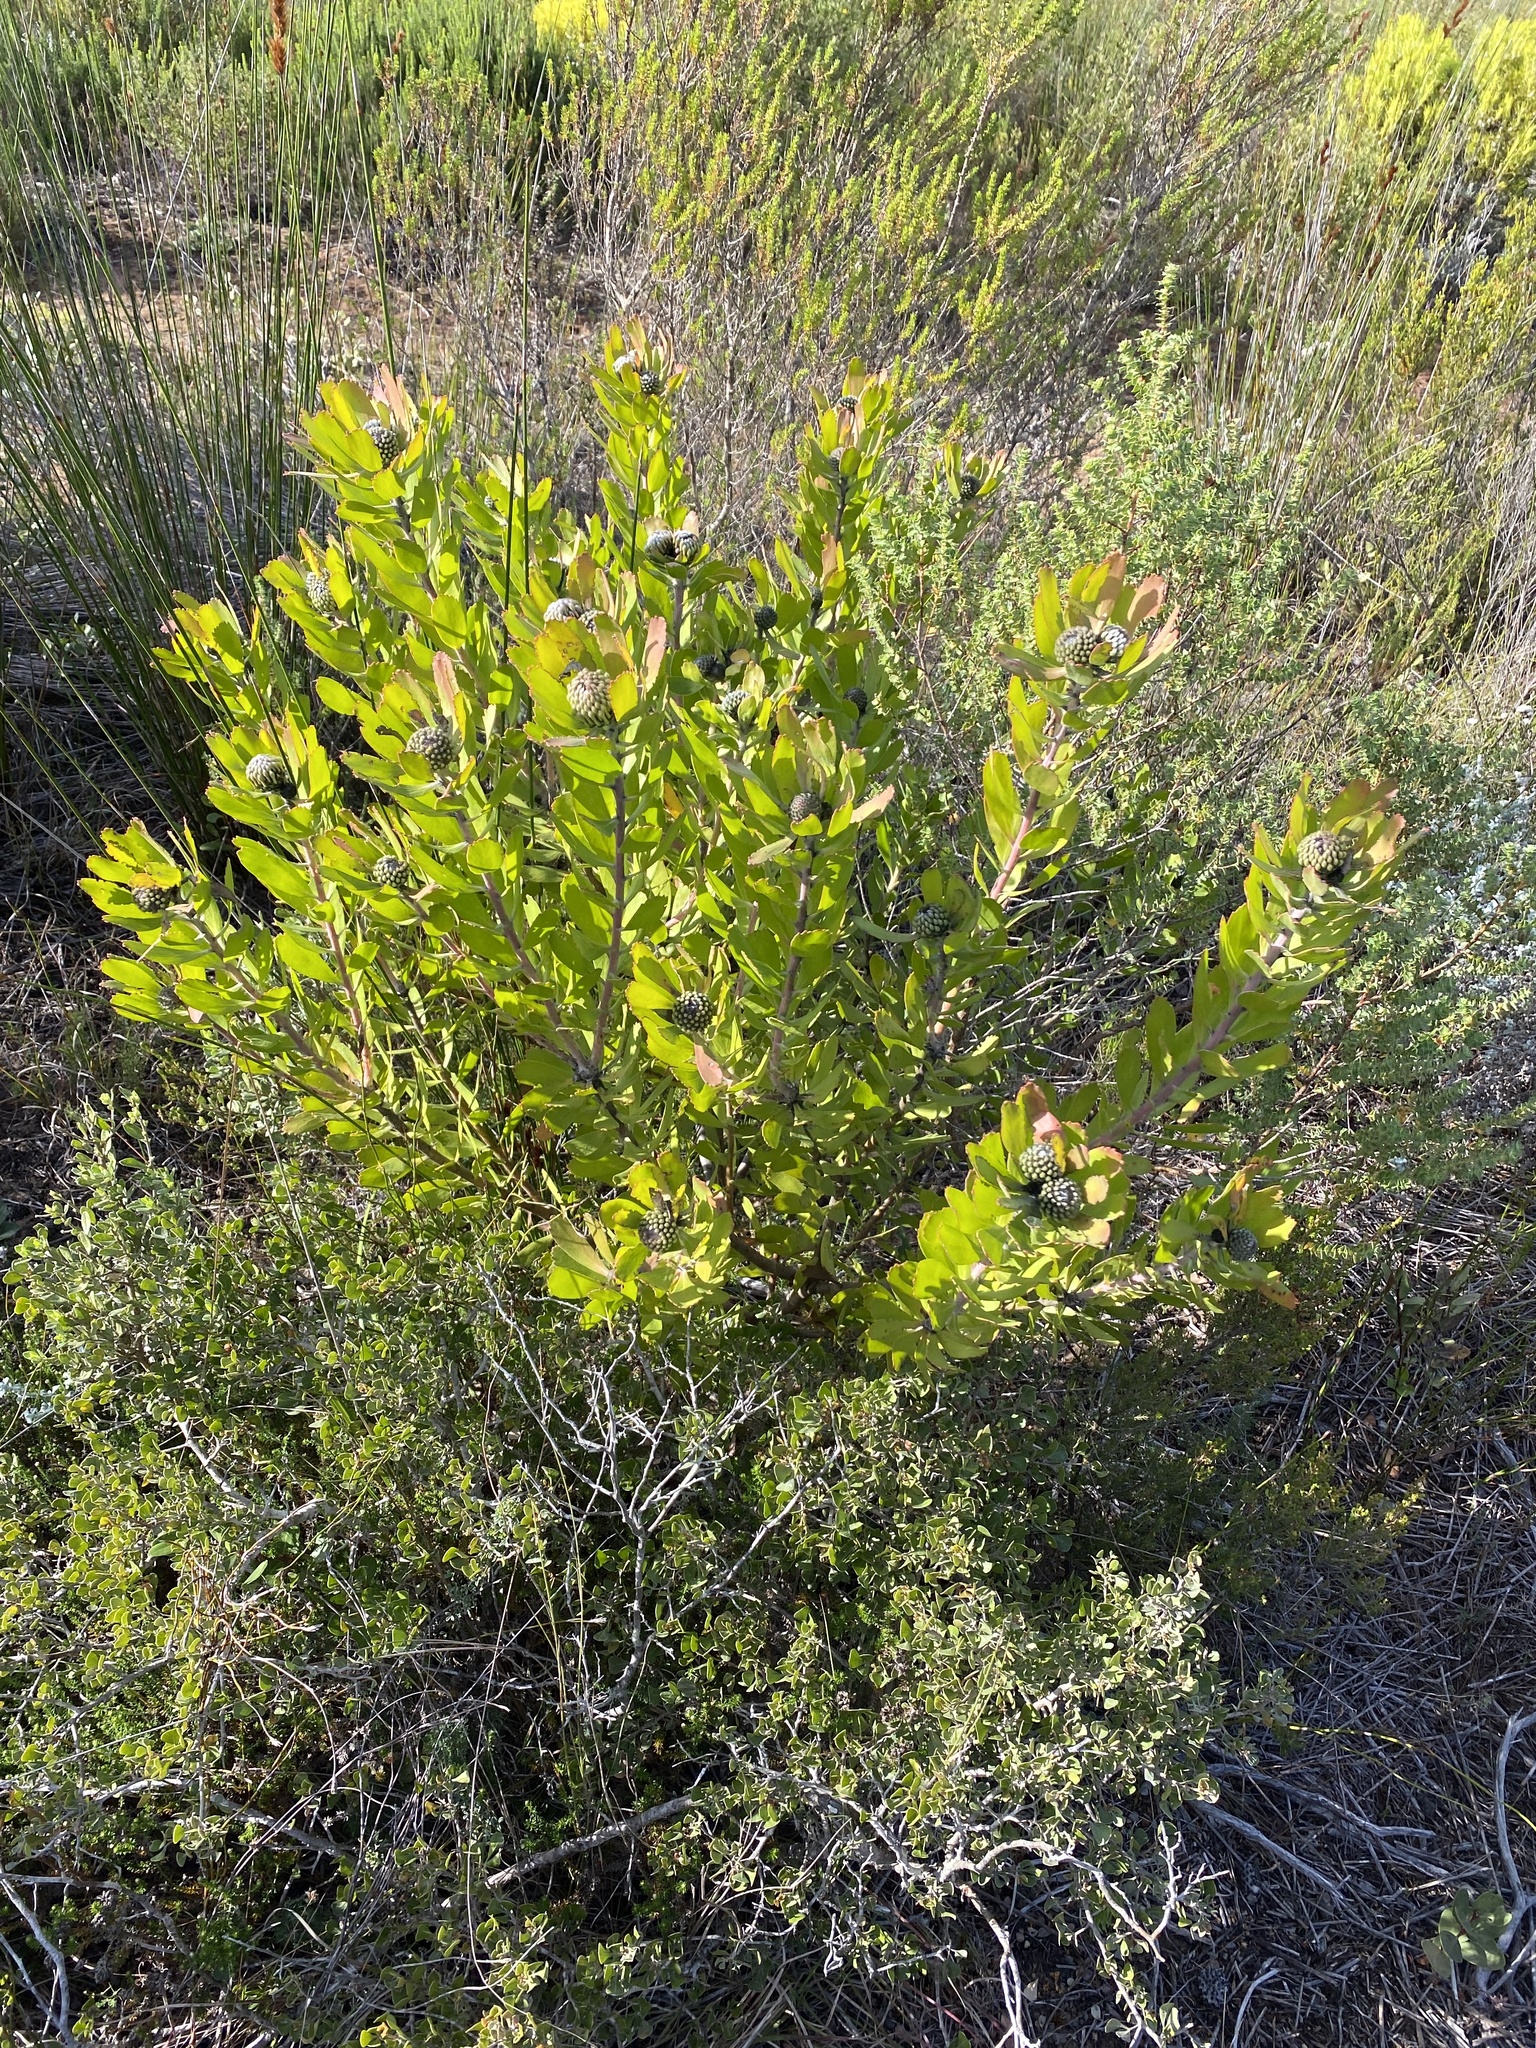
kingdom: Plantae
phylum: Tracheophyta
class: Magnoliopsida
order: Proteales
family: Proteaceae
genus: Leucospermum
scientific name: Leucospermum praecox
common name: Mossel bay pincushion
